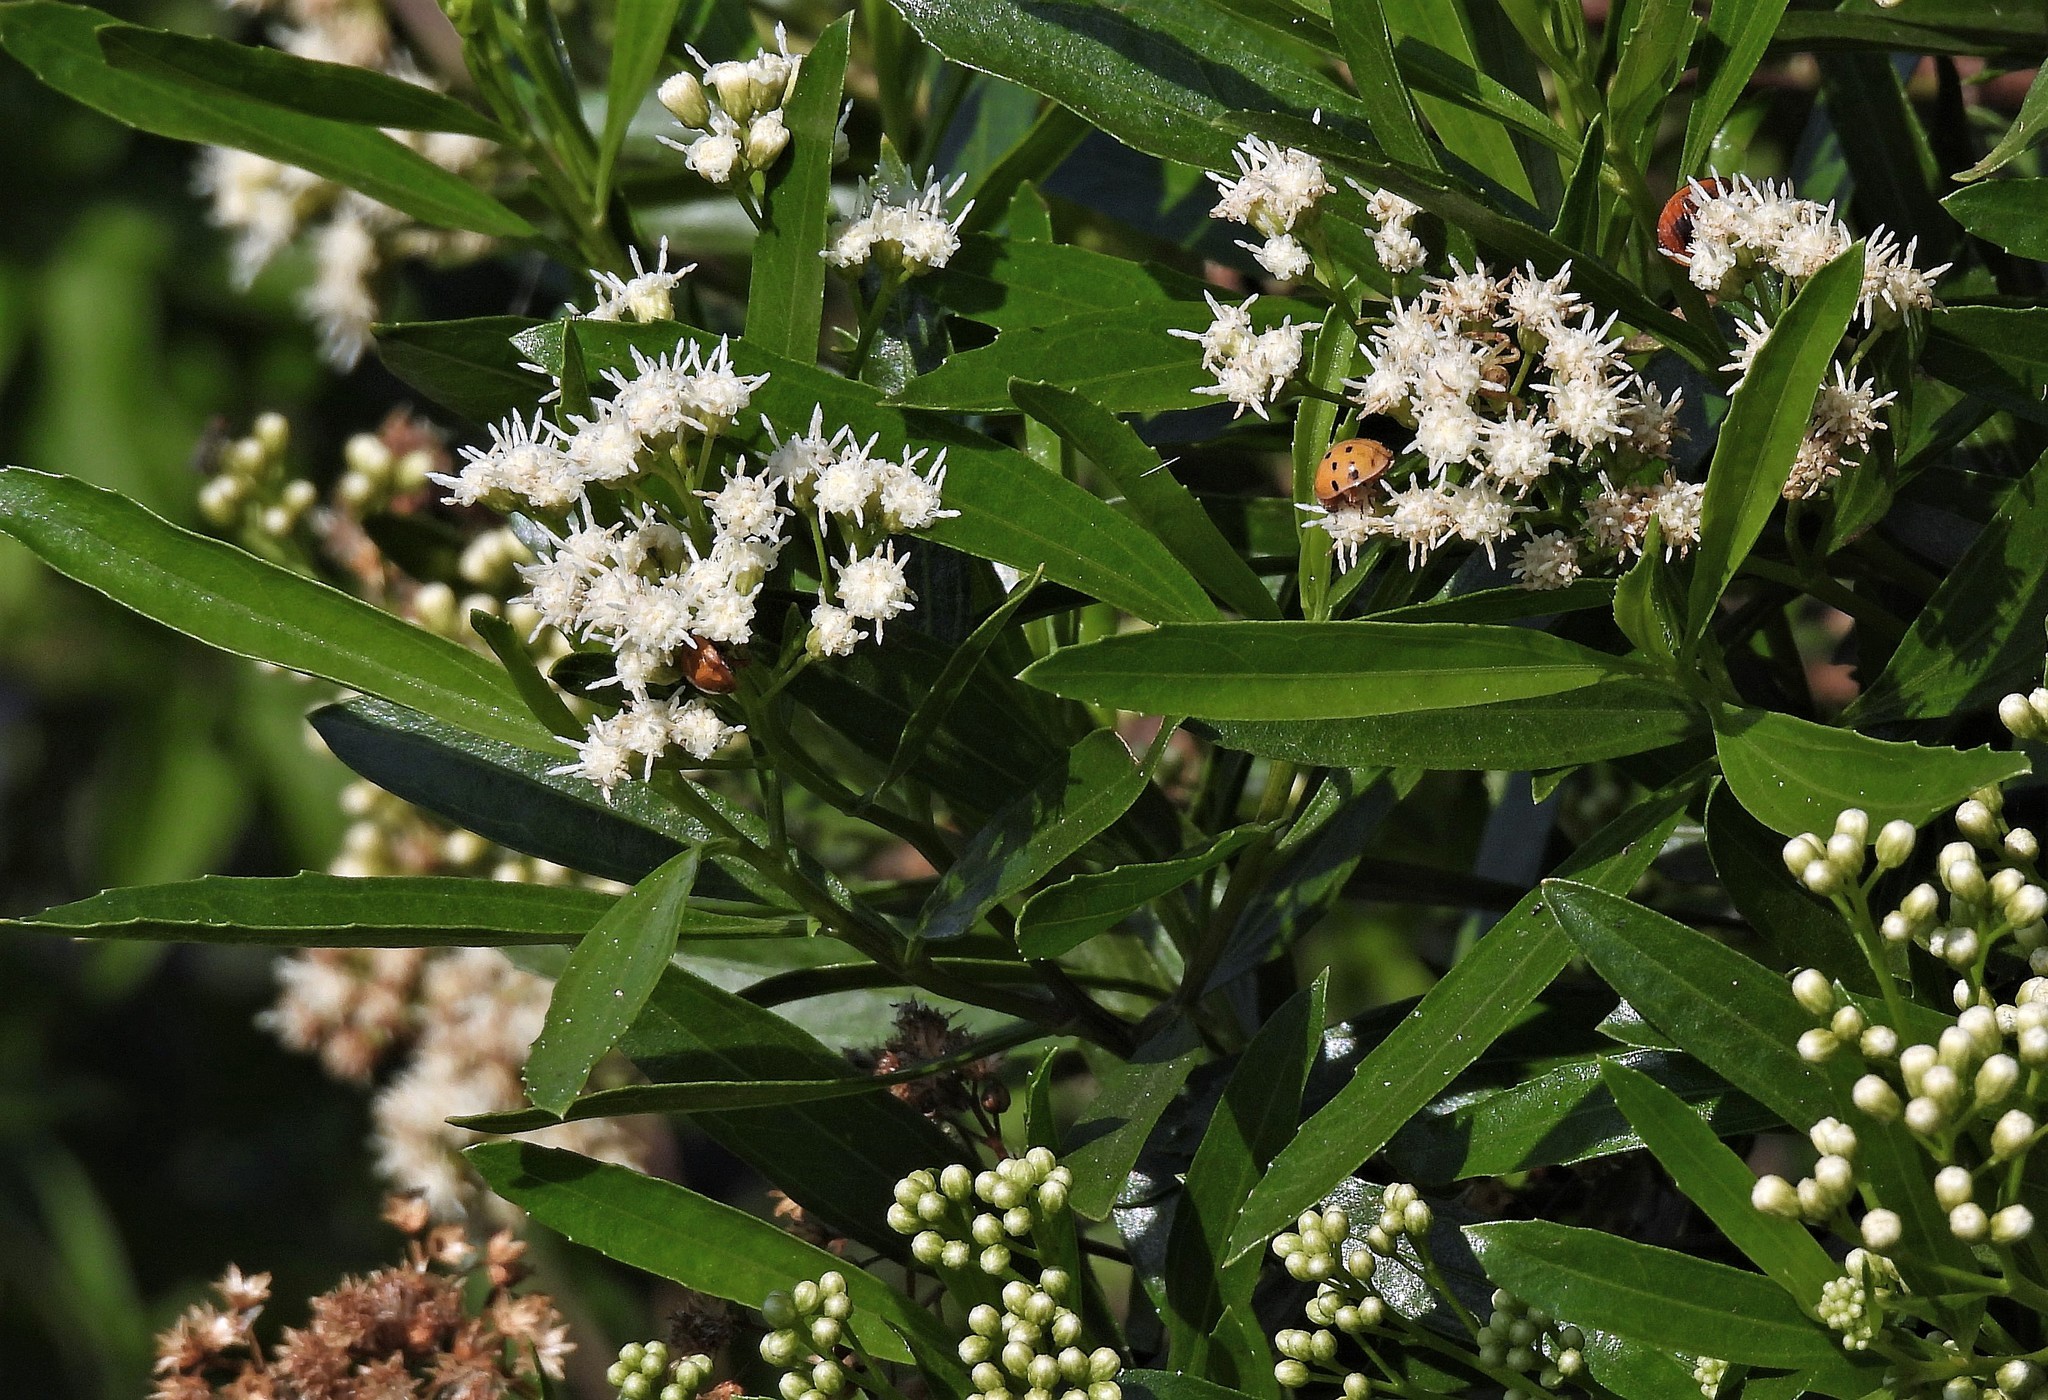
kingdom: Plantae
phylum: Tracheophyta
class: Magnoliopsida
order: Asterales
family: Asteraceae
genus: Baccharis
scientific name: Baccharis salicifolia
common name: Sticky baccharis
